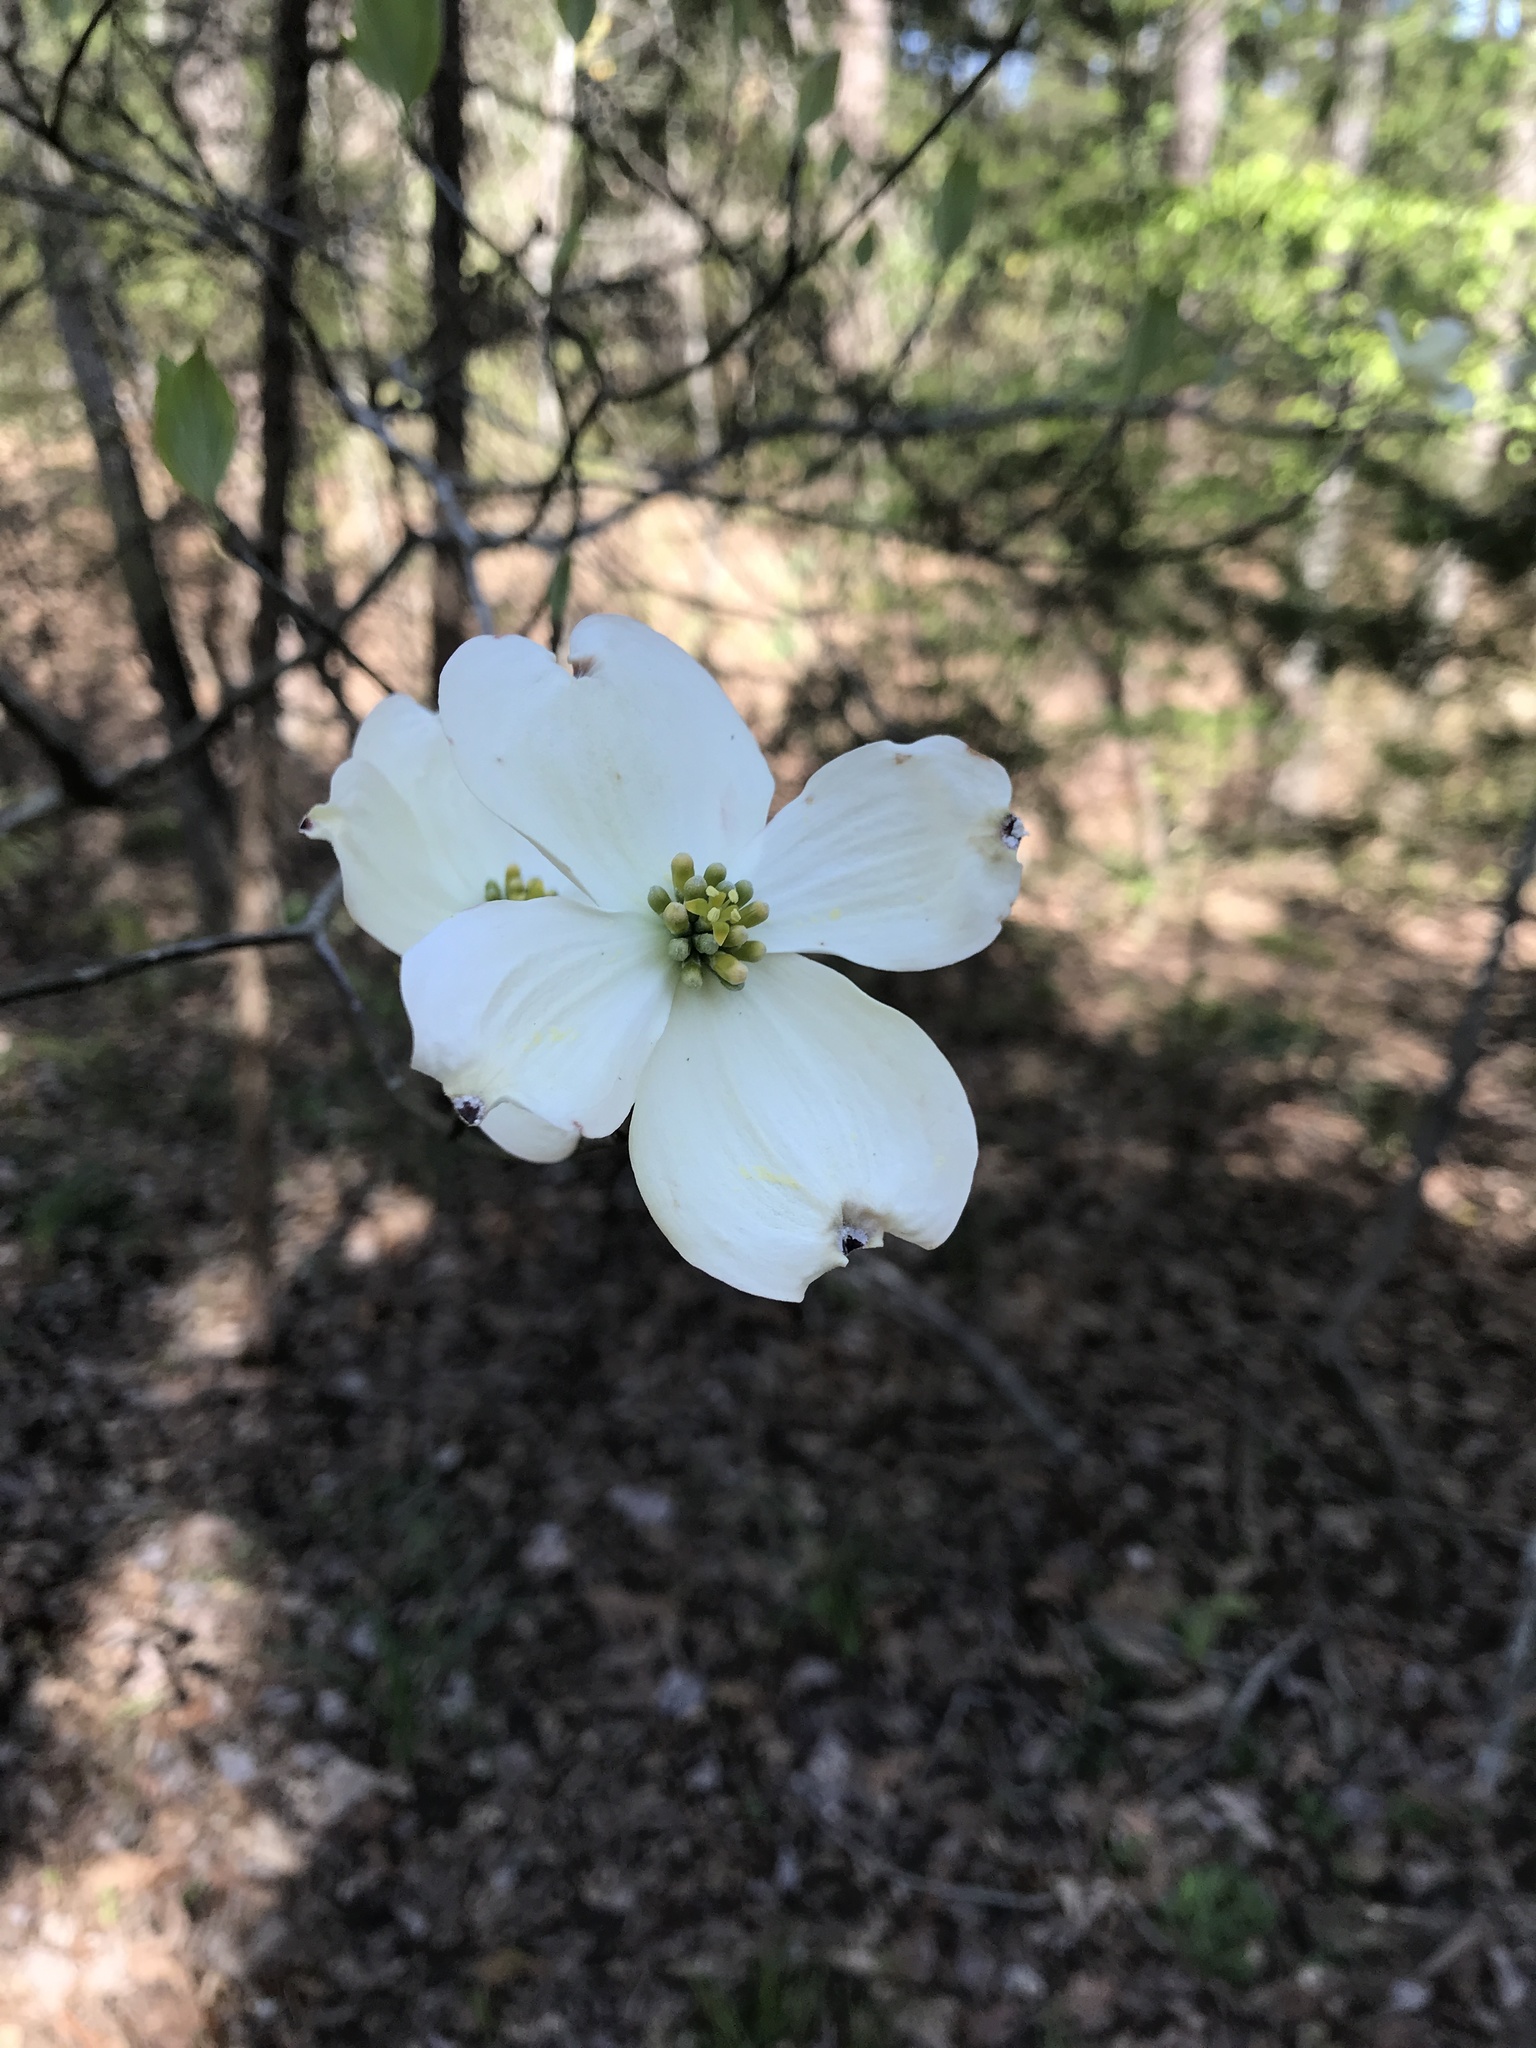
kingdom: Plantae
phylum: Tracheophyta
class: Magnoliopsida
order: Cornales
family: Cornaceae
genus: Cornus
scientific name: Cornus florida
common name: Flowering dogwood
